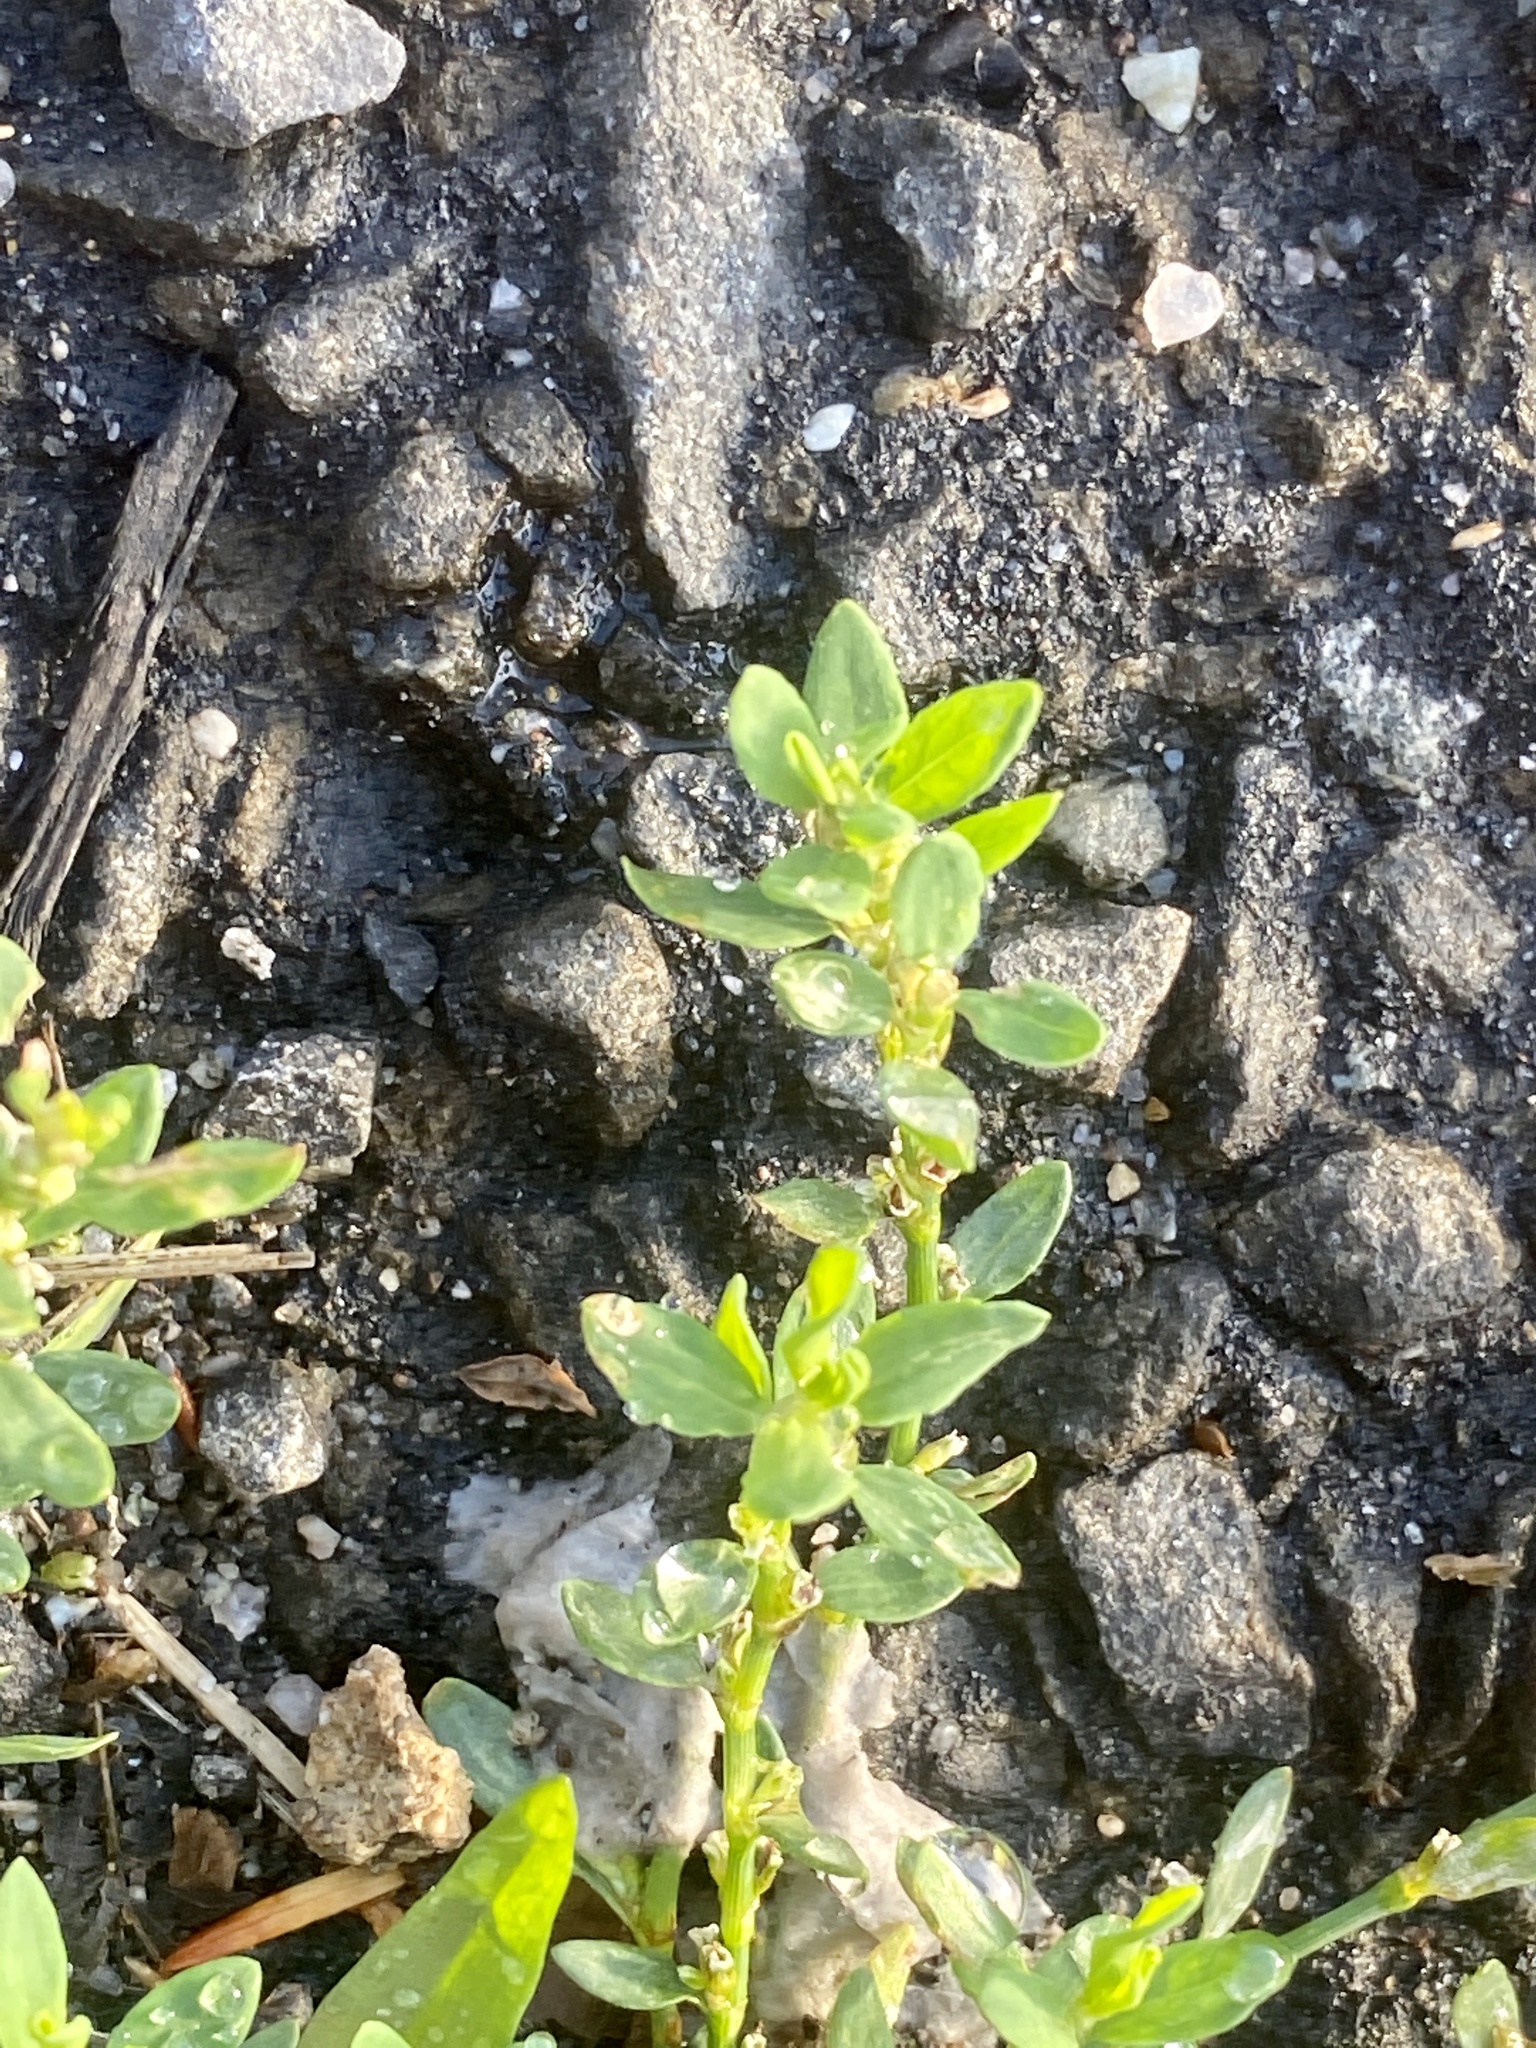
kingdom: Plantae
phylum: Tracheophyta
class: Magnoliopsida
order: Caryophyllales
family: Polygonaceae
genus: Polygonum
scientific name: Polygonum aviculare
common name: Prostrate knotweed
